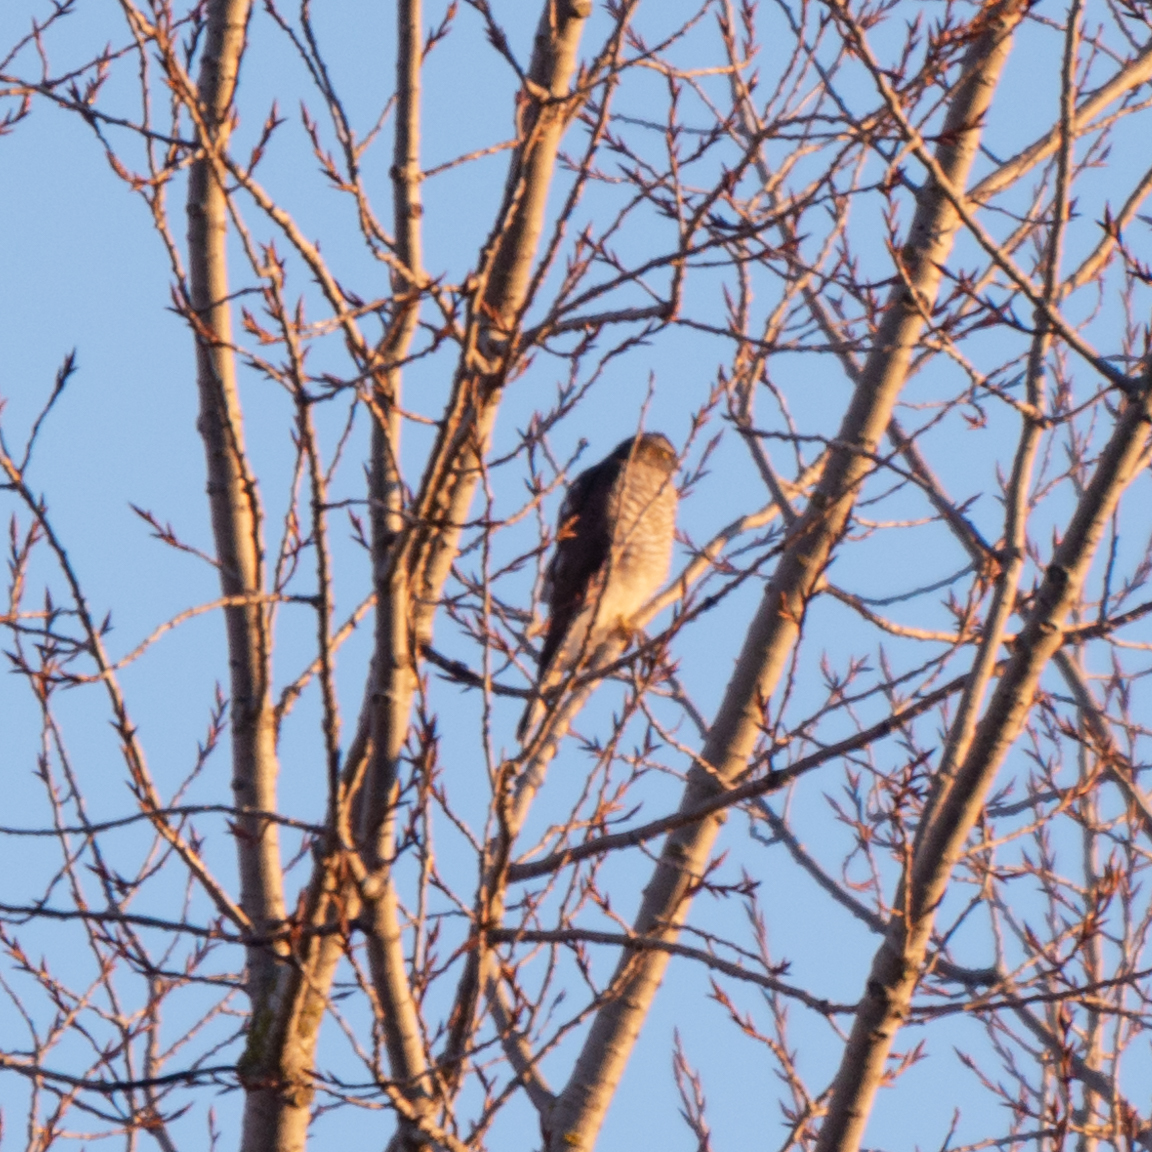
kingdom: Animalia
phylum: Chordata
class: Aves
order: Accipitriformes
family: Accipitridae
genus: Accipiter
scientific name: Accipiter nisus
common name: Eurasian sparrowhawk
